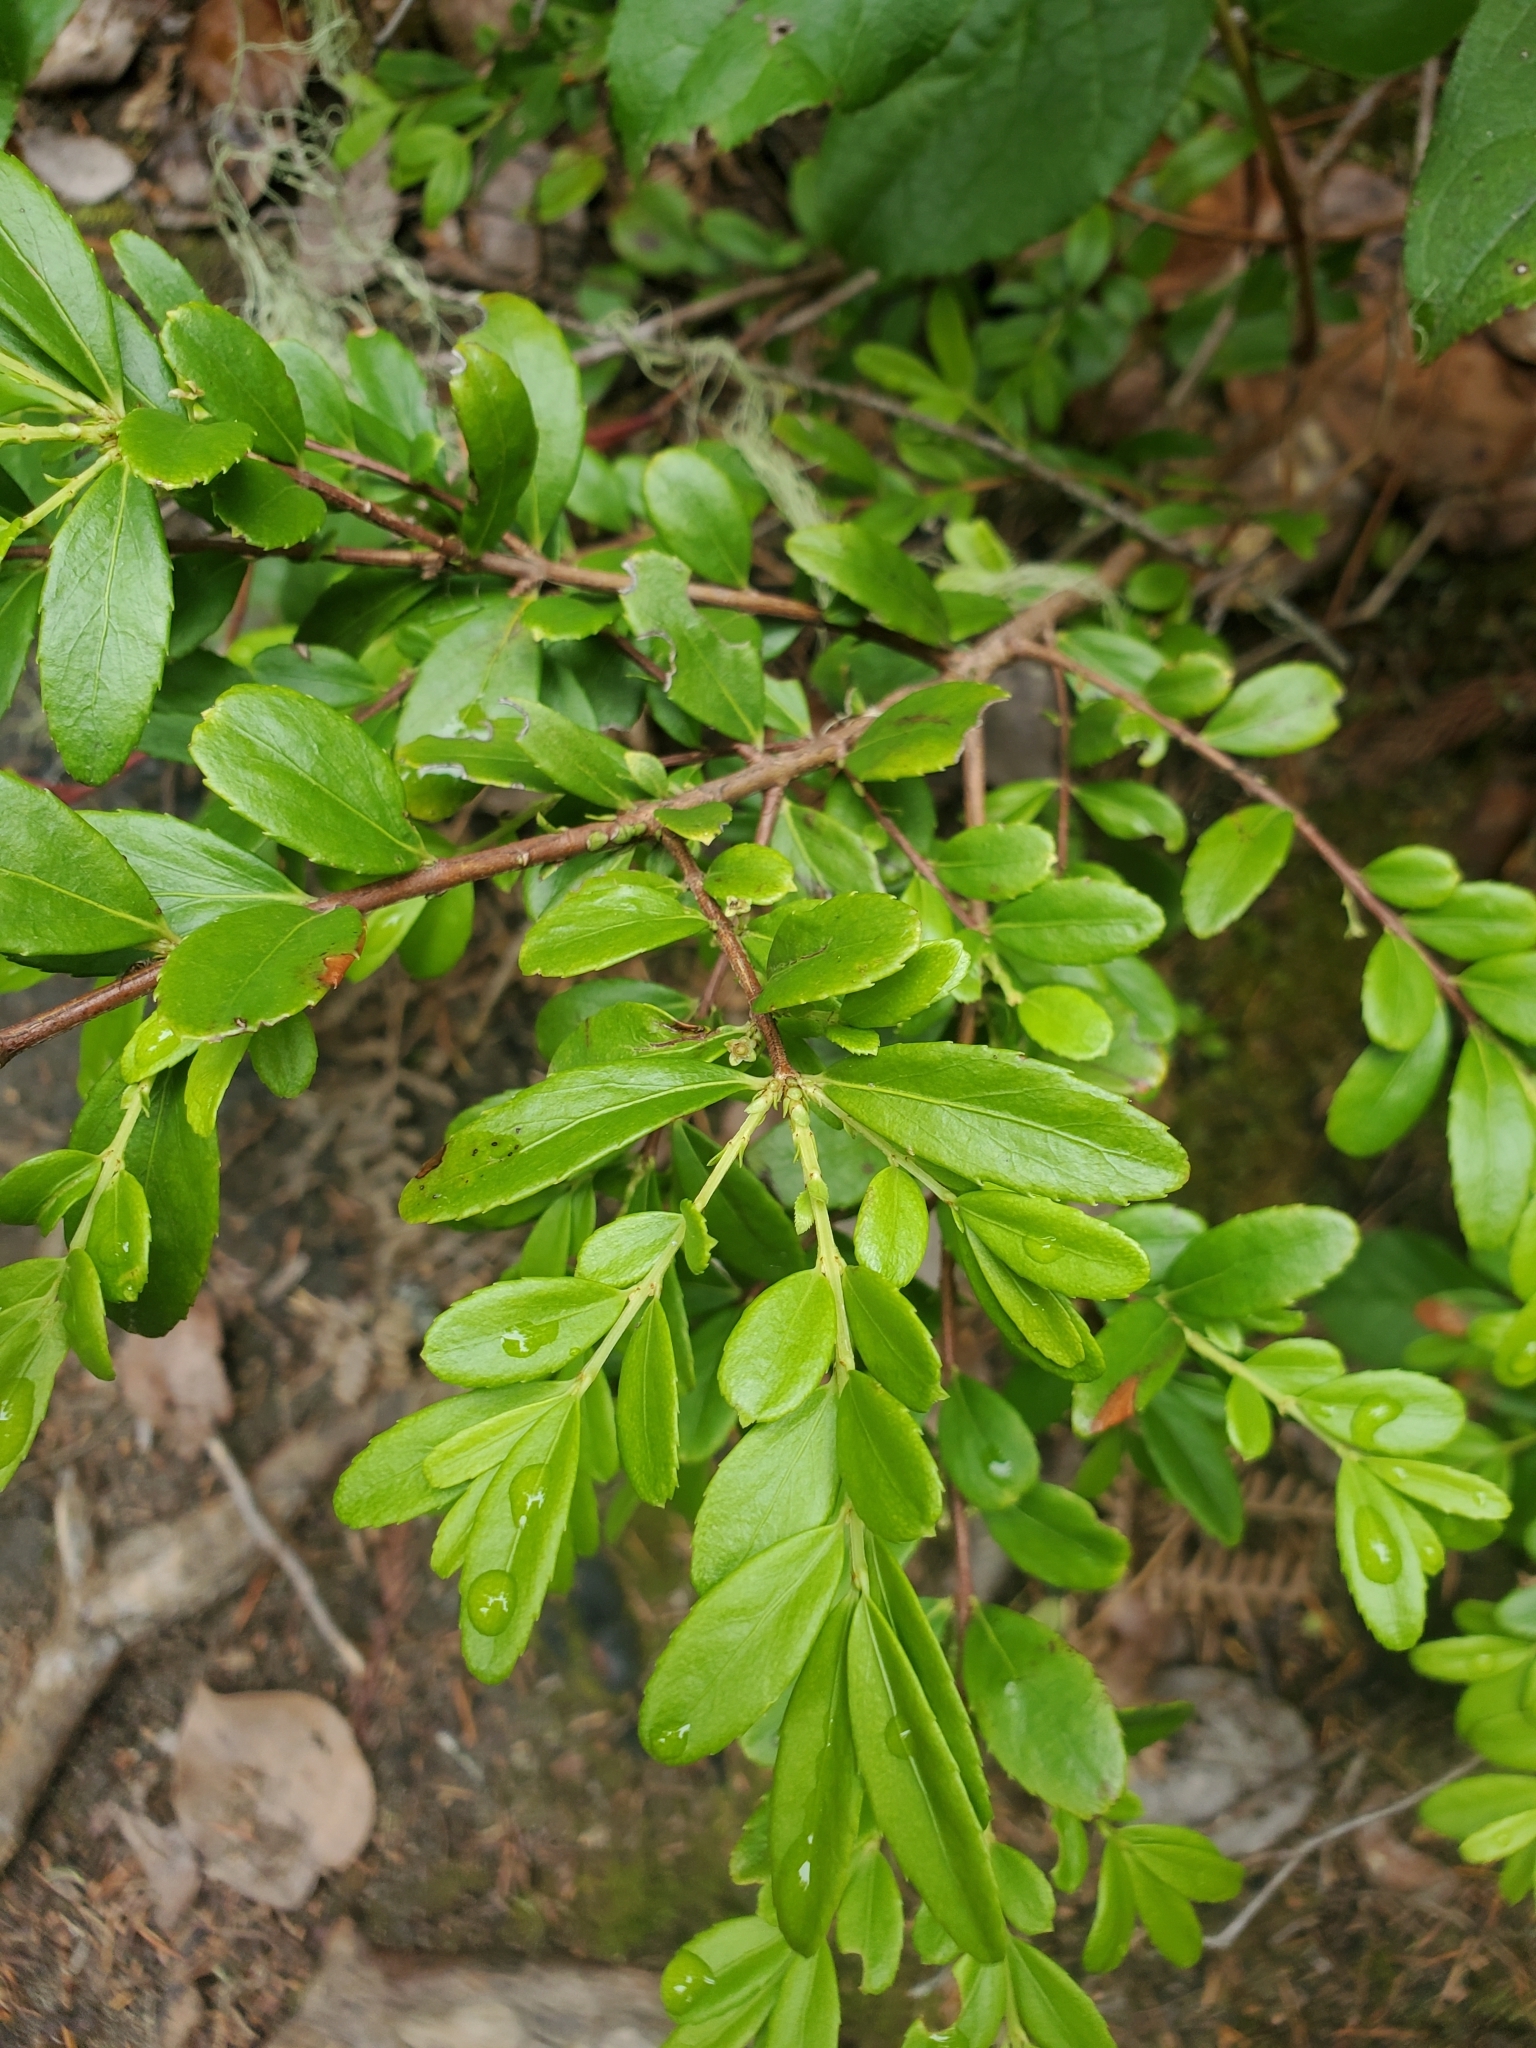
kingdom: Plantae
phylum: Tracheophyta
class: Magnoliopsida
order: Celastrales
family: Celastraceae
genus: Paxistima
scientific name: Paxistima myrsinites
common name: Mountain-lover
